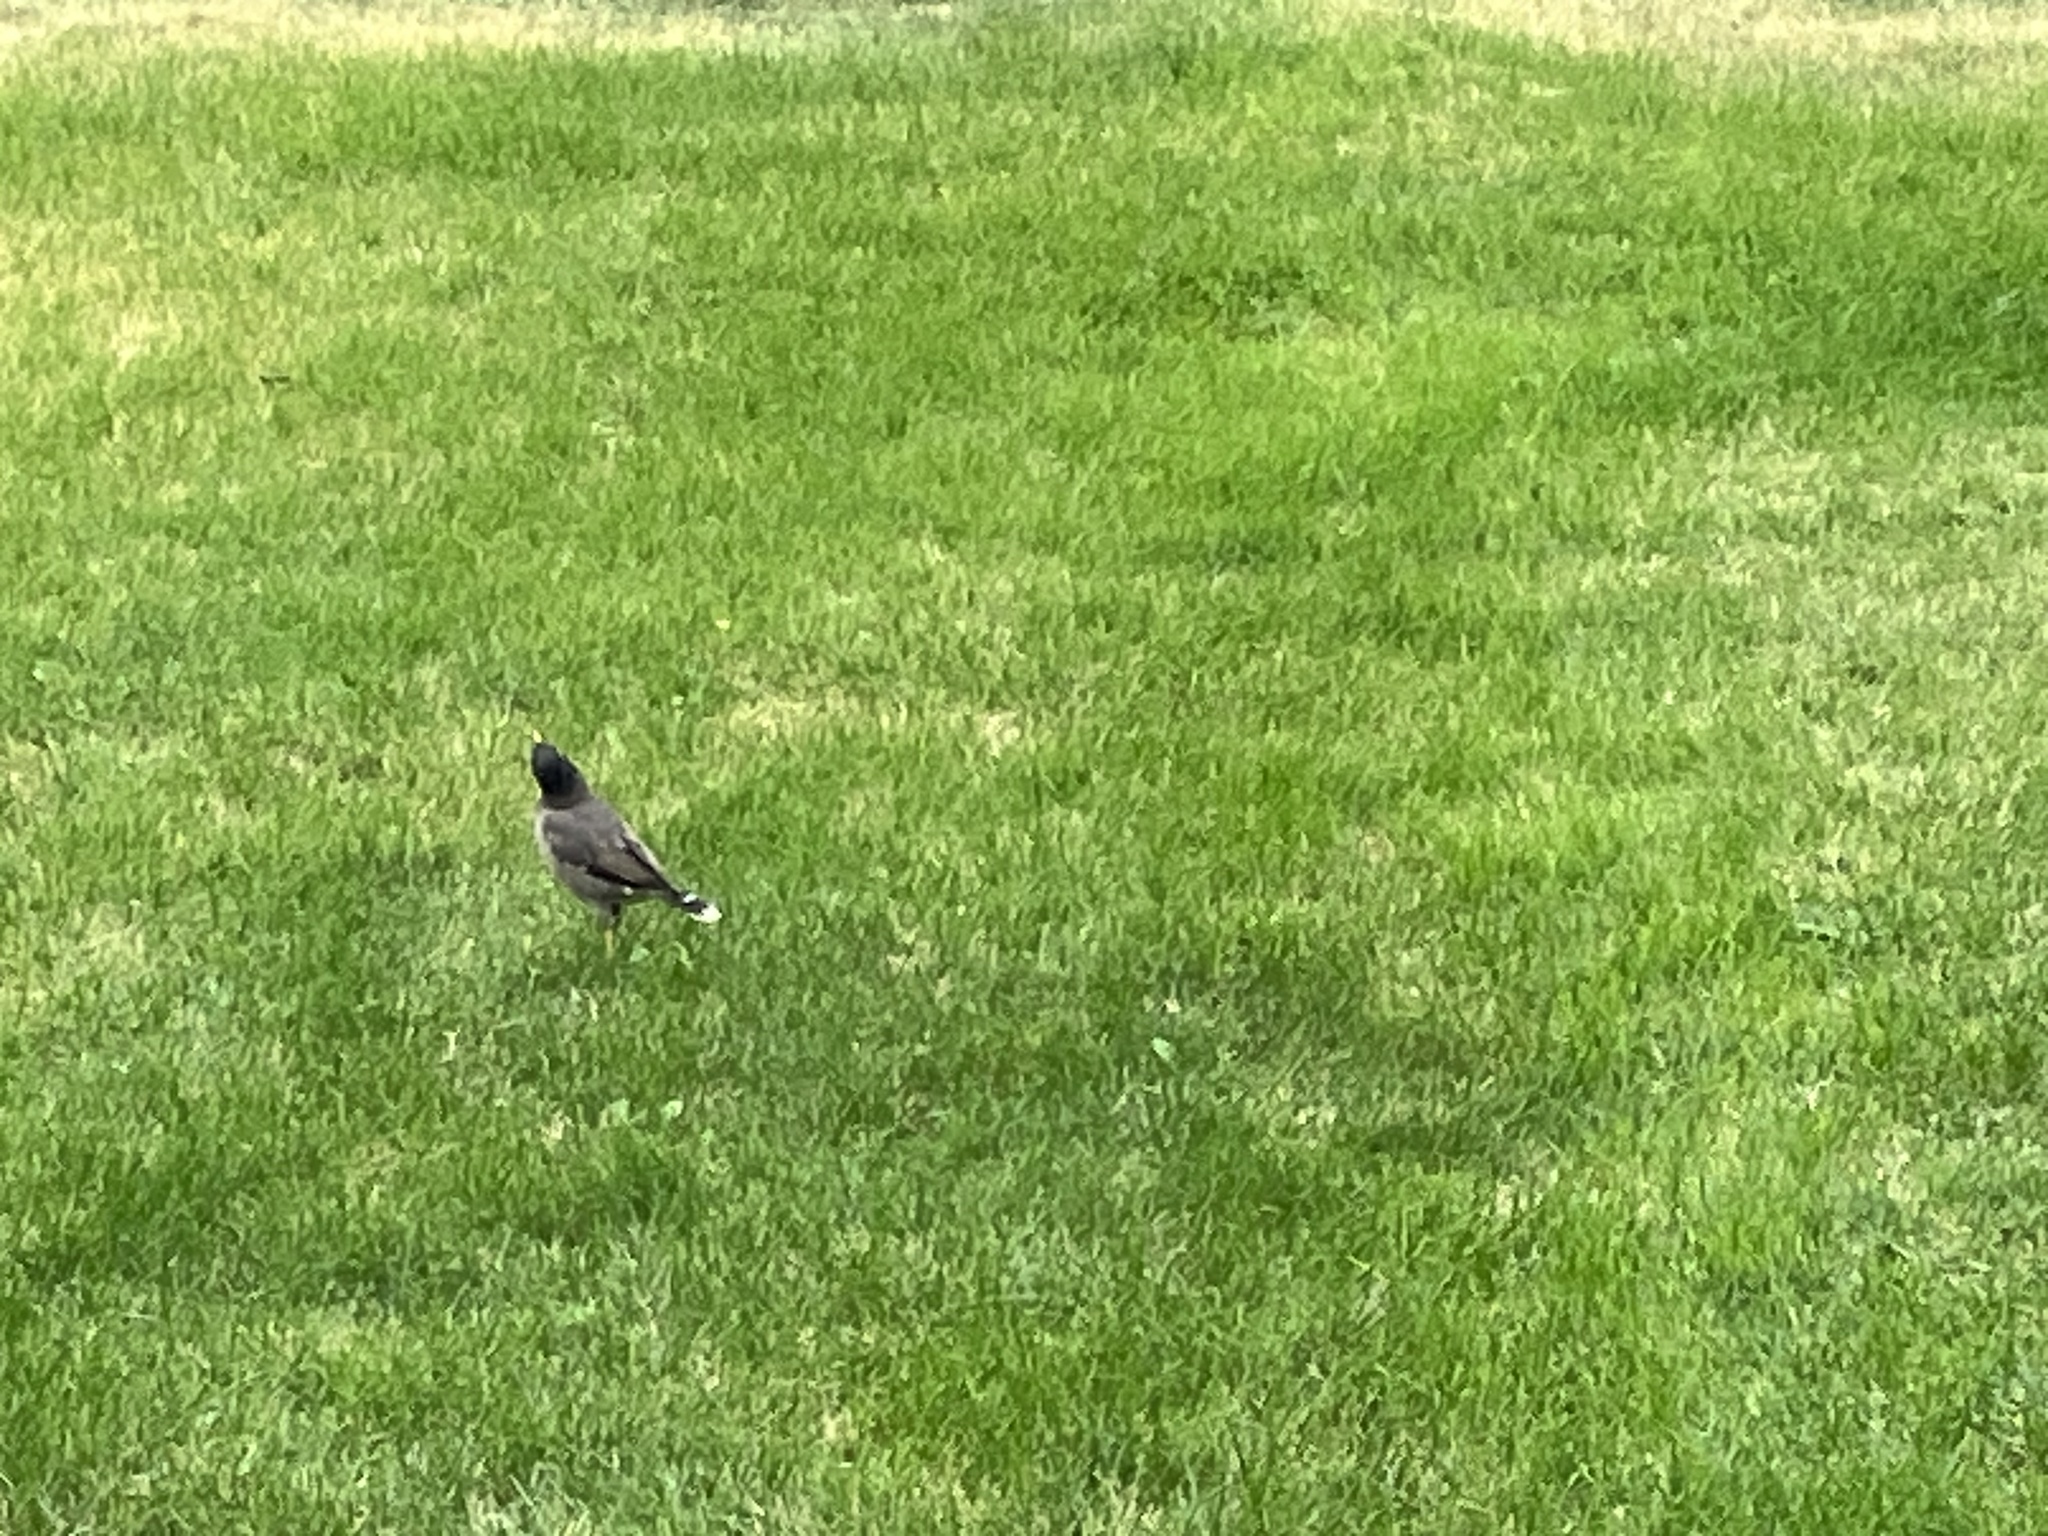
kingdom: Animalia
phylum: Chordata
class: Aves
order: Passeriformes
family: Sturnidae
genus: Acridotheres
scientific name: Acridotheres tristis
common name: Common myna
